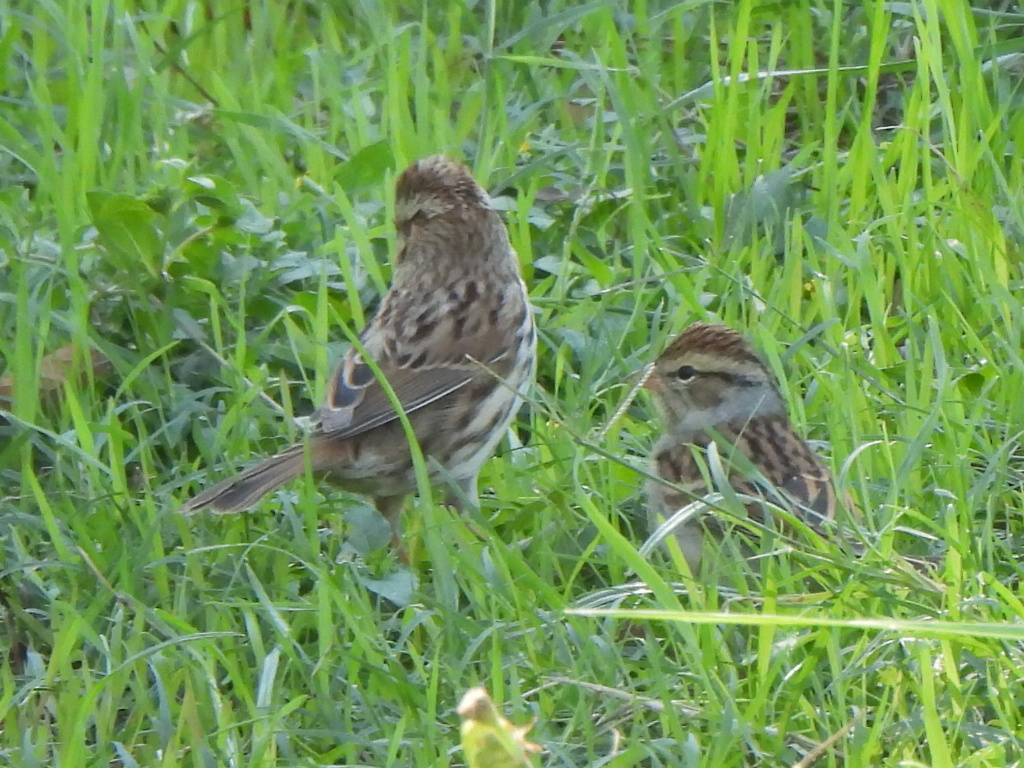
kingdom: Animalia
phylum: Chordata
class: Aves
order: Passeriformes
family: Passerellidae
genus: Spizella
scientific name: Spizella passerina
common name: Chipping sparrow
